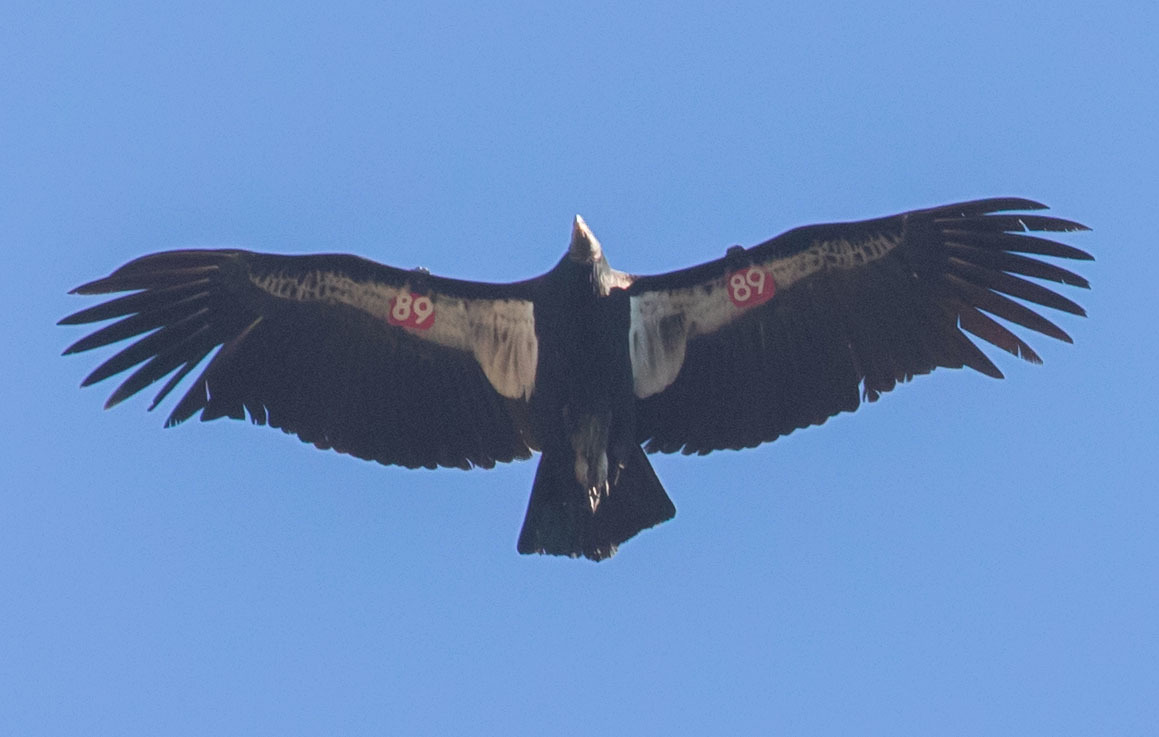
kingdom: Animalia
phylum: Chordata
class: Aves
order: Accipitriformes
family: Cathartidae
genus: Gymnogyps
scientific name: Gymnogyps californianus
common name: California condor
